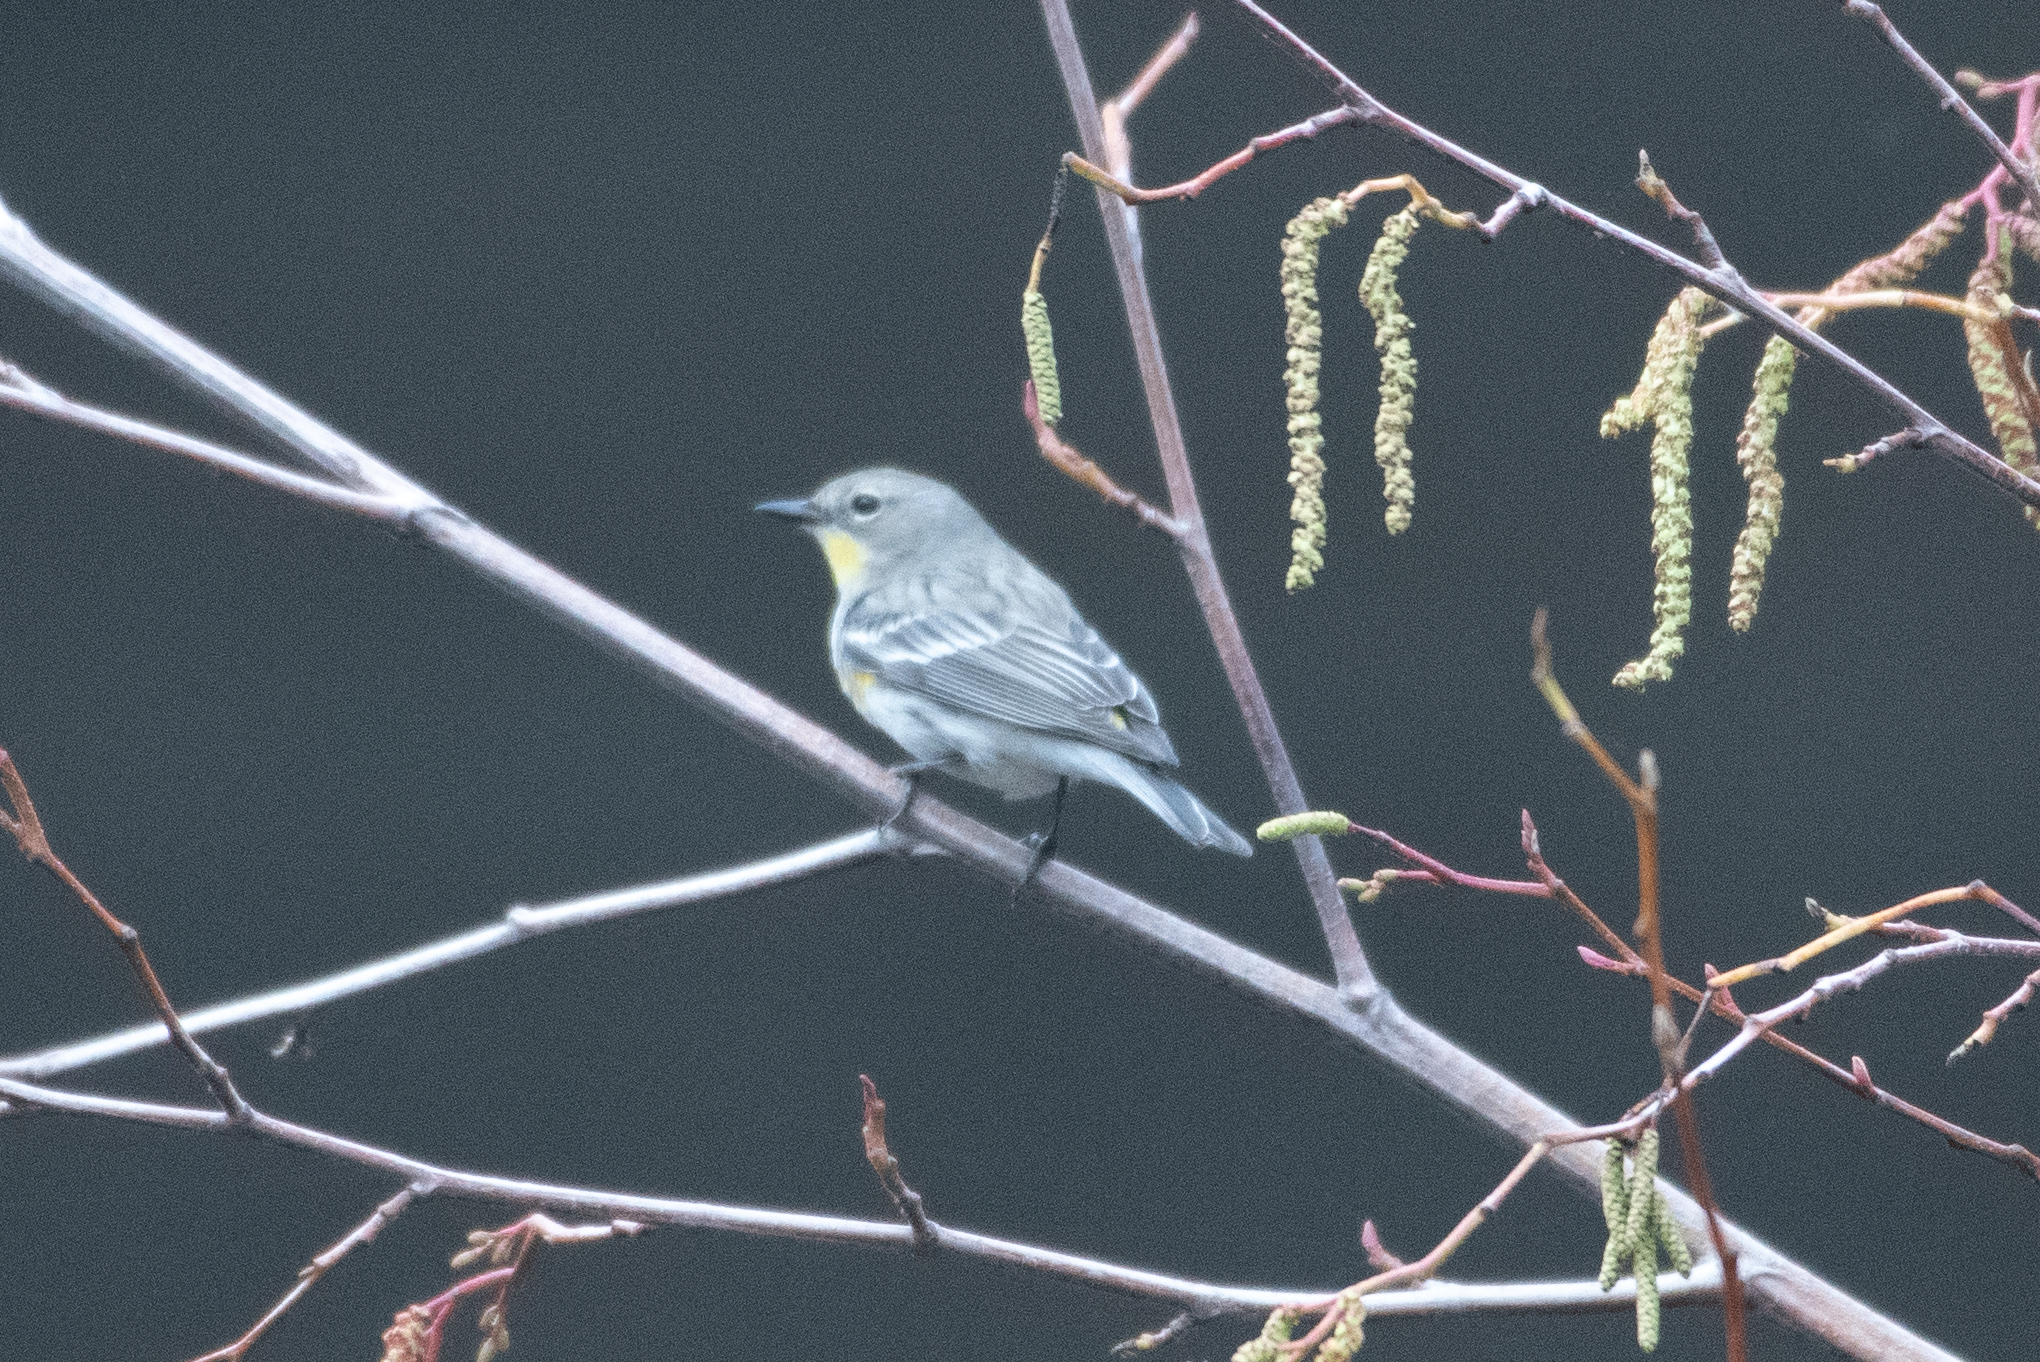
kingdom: Animalia
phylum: Chordata
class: Aves
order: Passeriformes
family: Parulidae
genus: Setophaga
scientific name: Setophaga coronata
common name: Myrtle warbler
